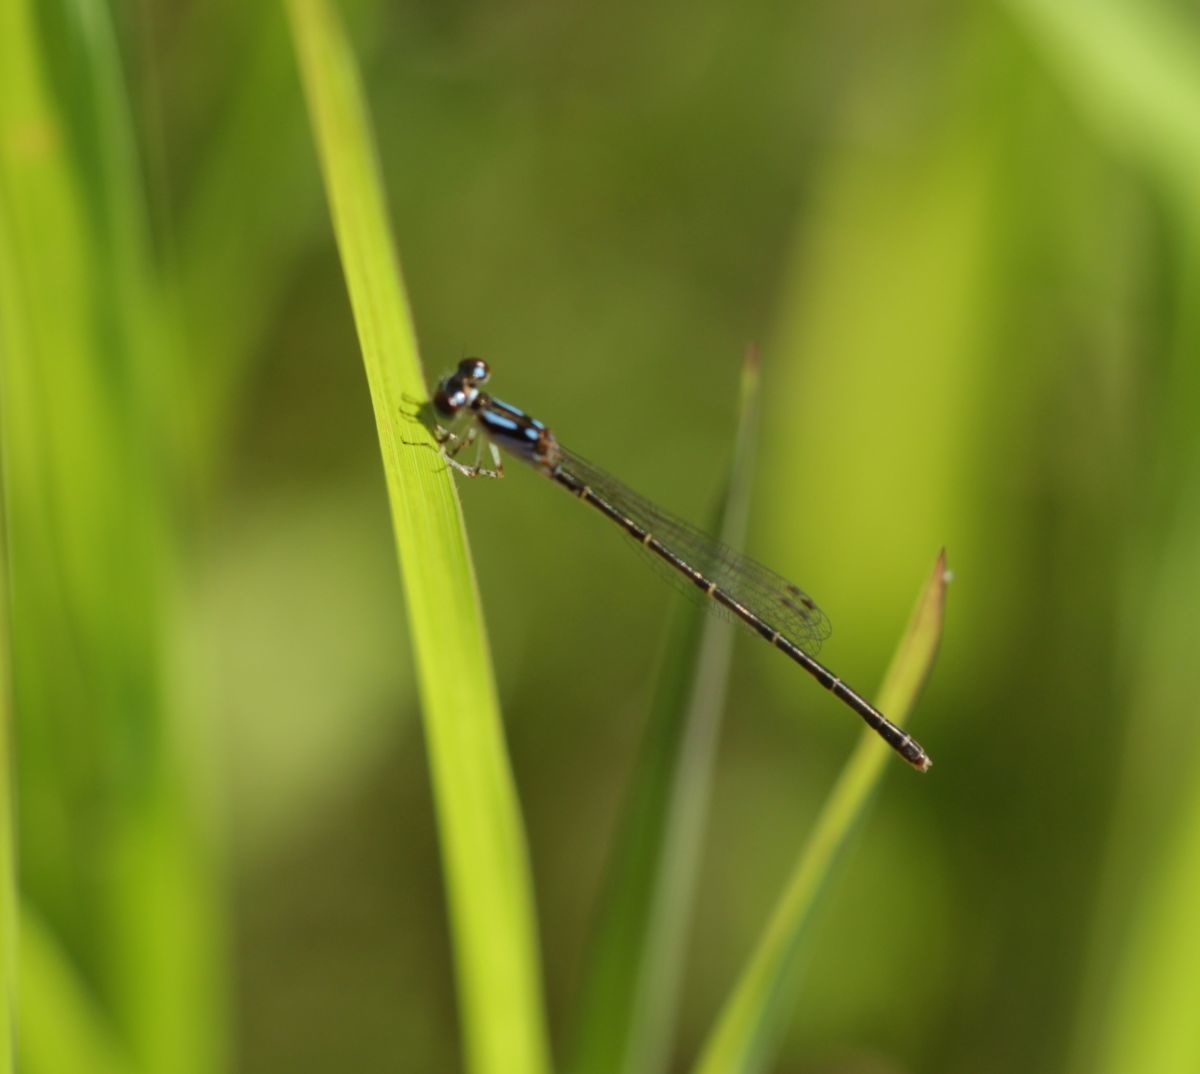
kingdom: Animalia
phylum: Arthropoda
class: Insecta
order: Odonata
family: Coenagrionidae
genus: Ischnura
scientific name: Ischnura posita
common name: Fragile forktail
